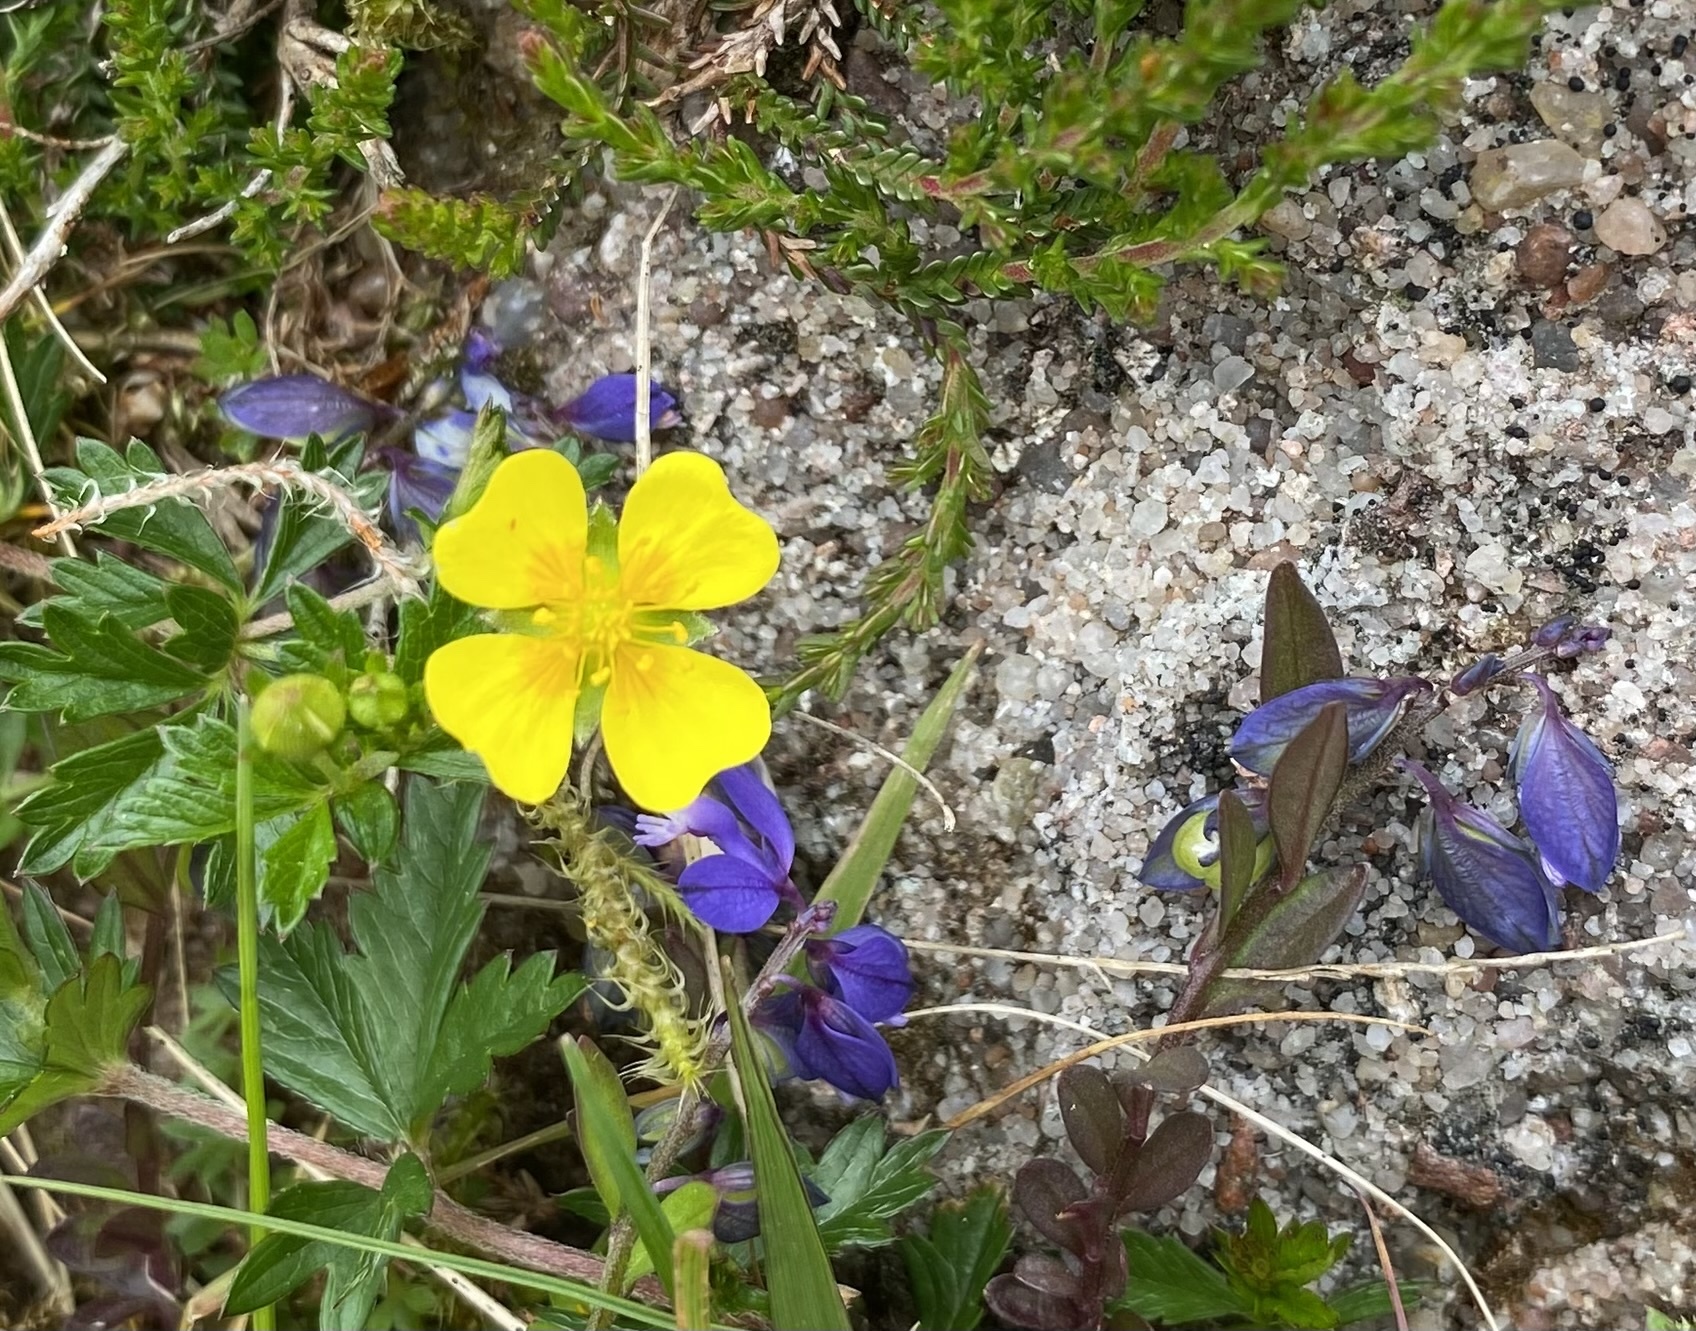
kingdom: Plantae
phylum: Tracheophyta
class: Magnoliopsida
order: Rosales
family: Rosaceae
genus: Potentilla
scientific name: Potentilla erecta
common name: Tormentil
